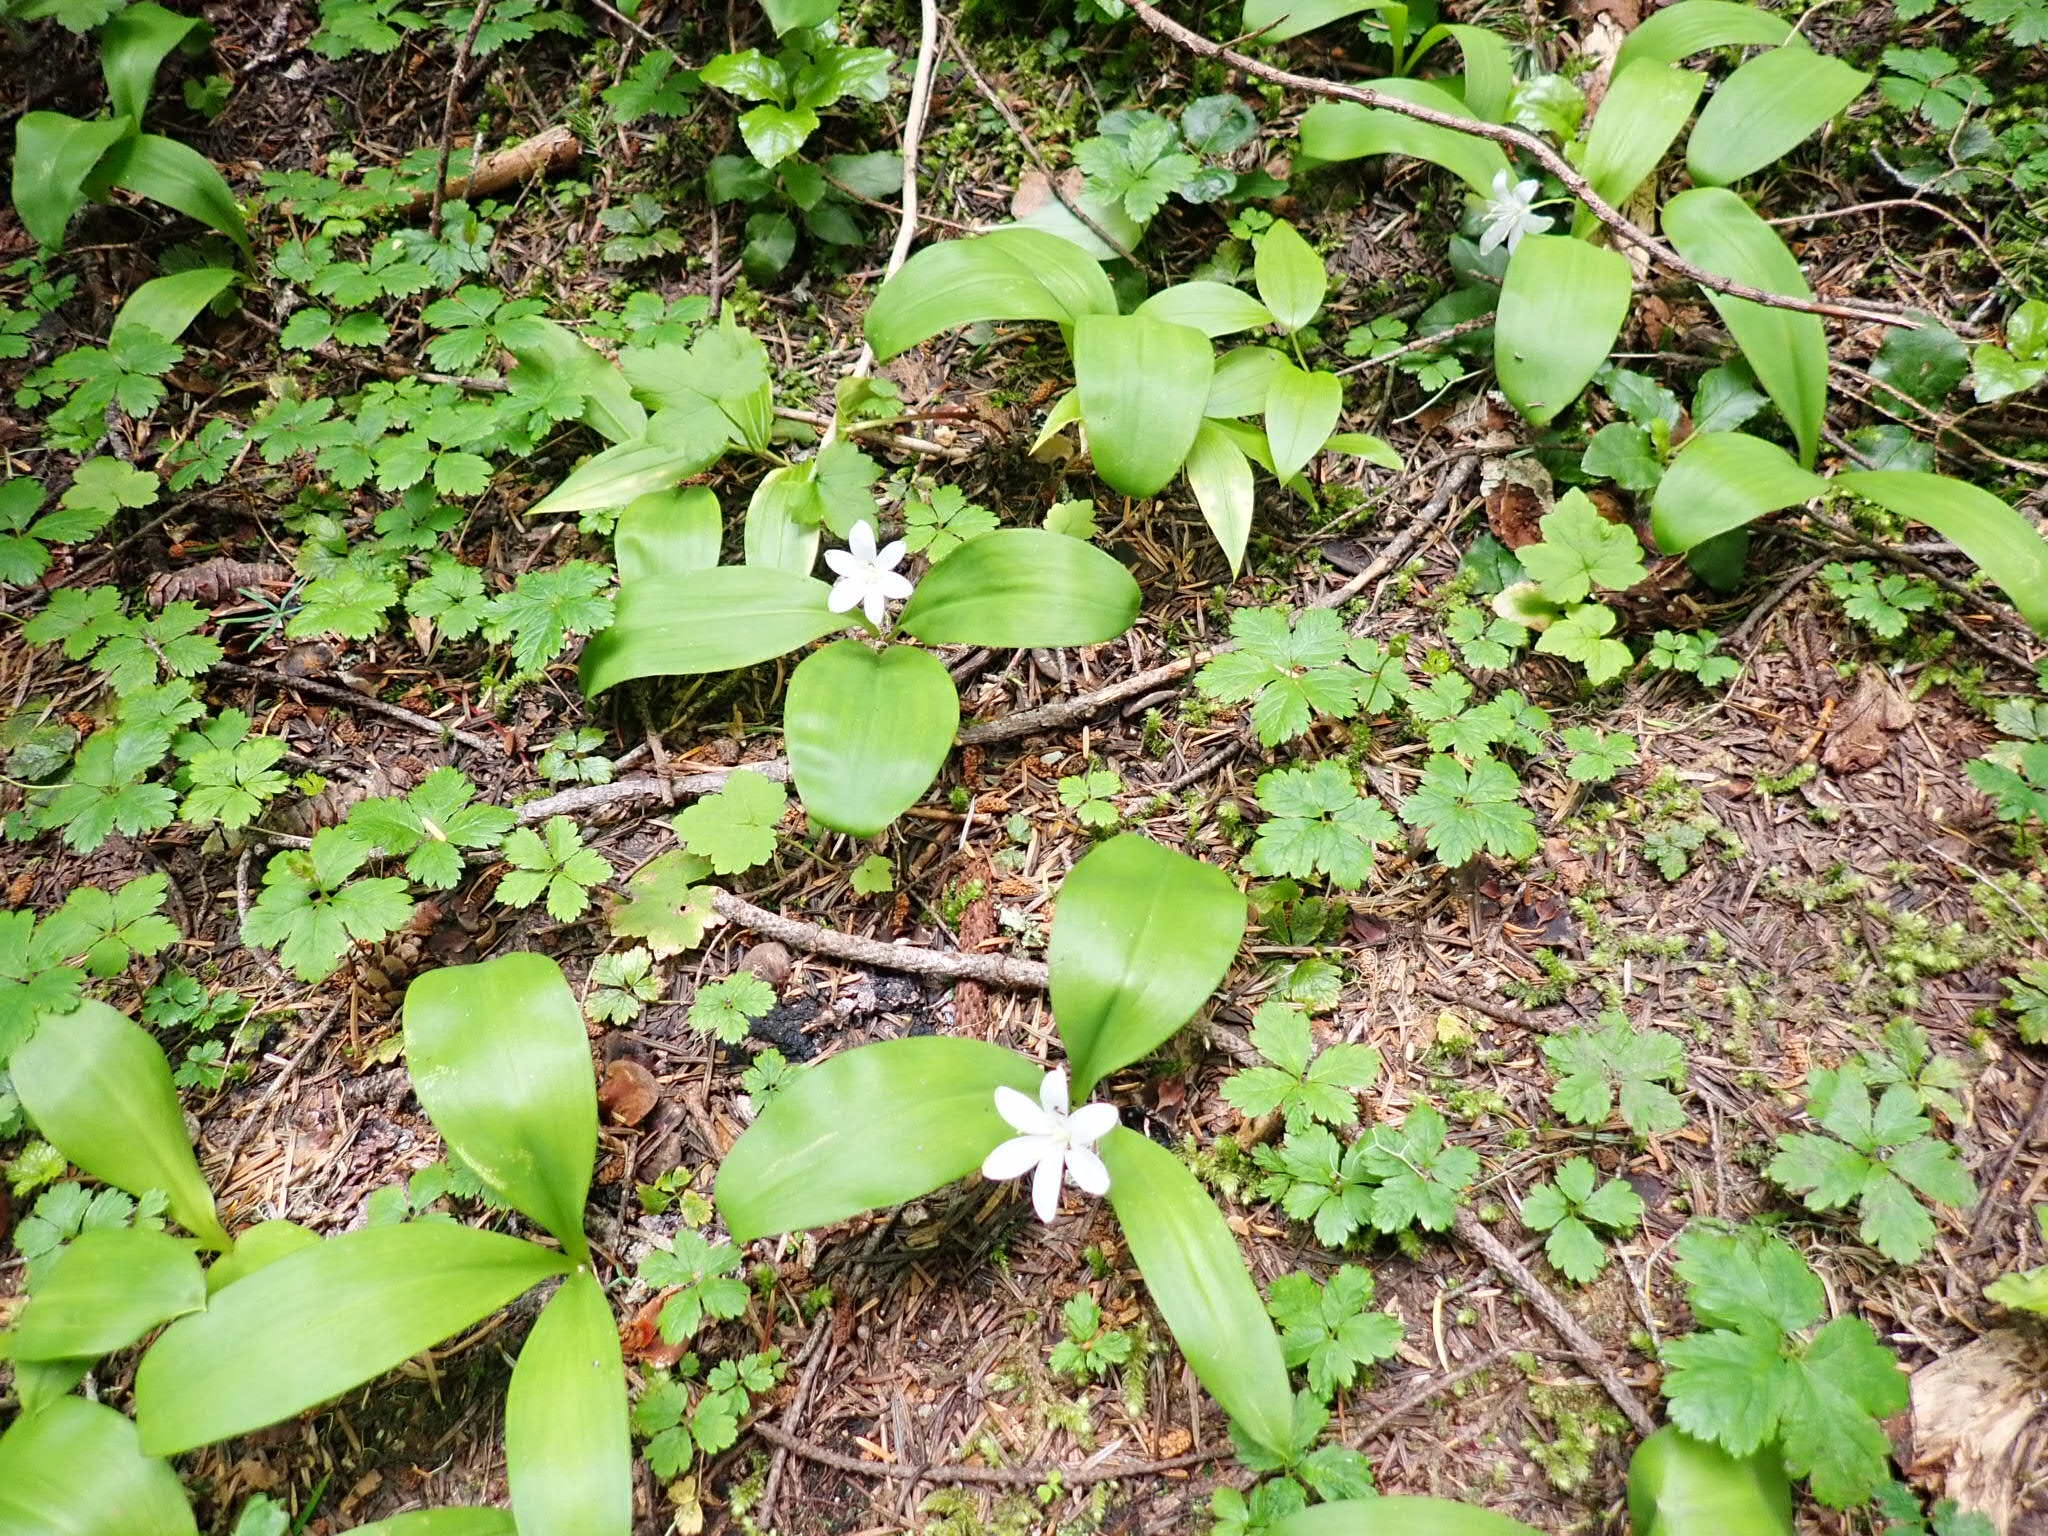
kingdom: Plantae
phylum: Tracheophyta
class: Liliopsida
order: Liliales
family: Liliaceae
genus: Clintonia
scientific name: Clintonia uniflora
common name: Queen's cup
